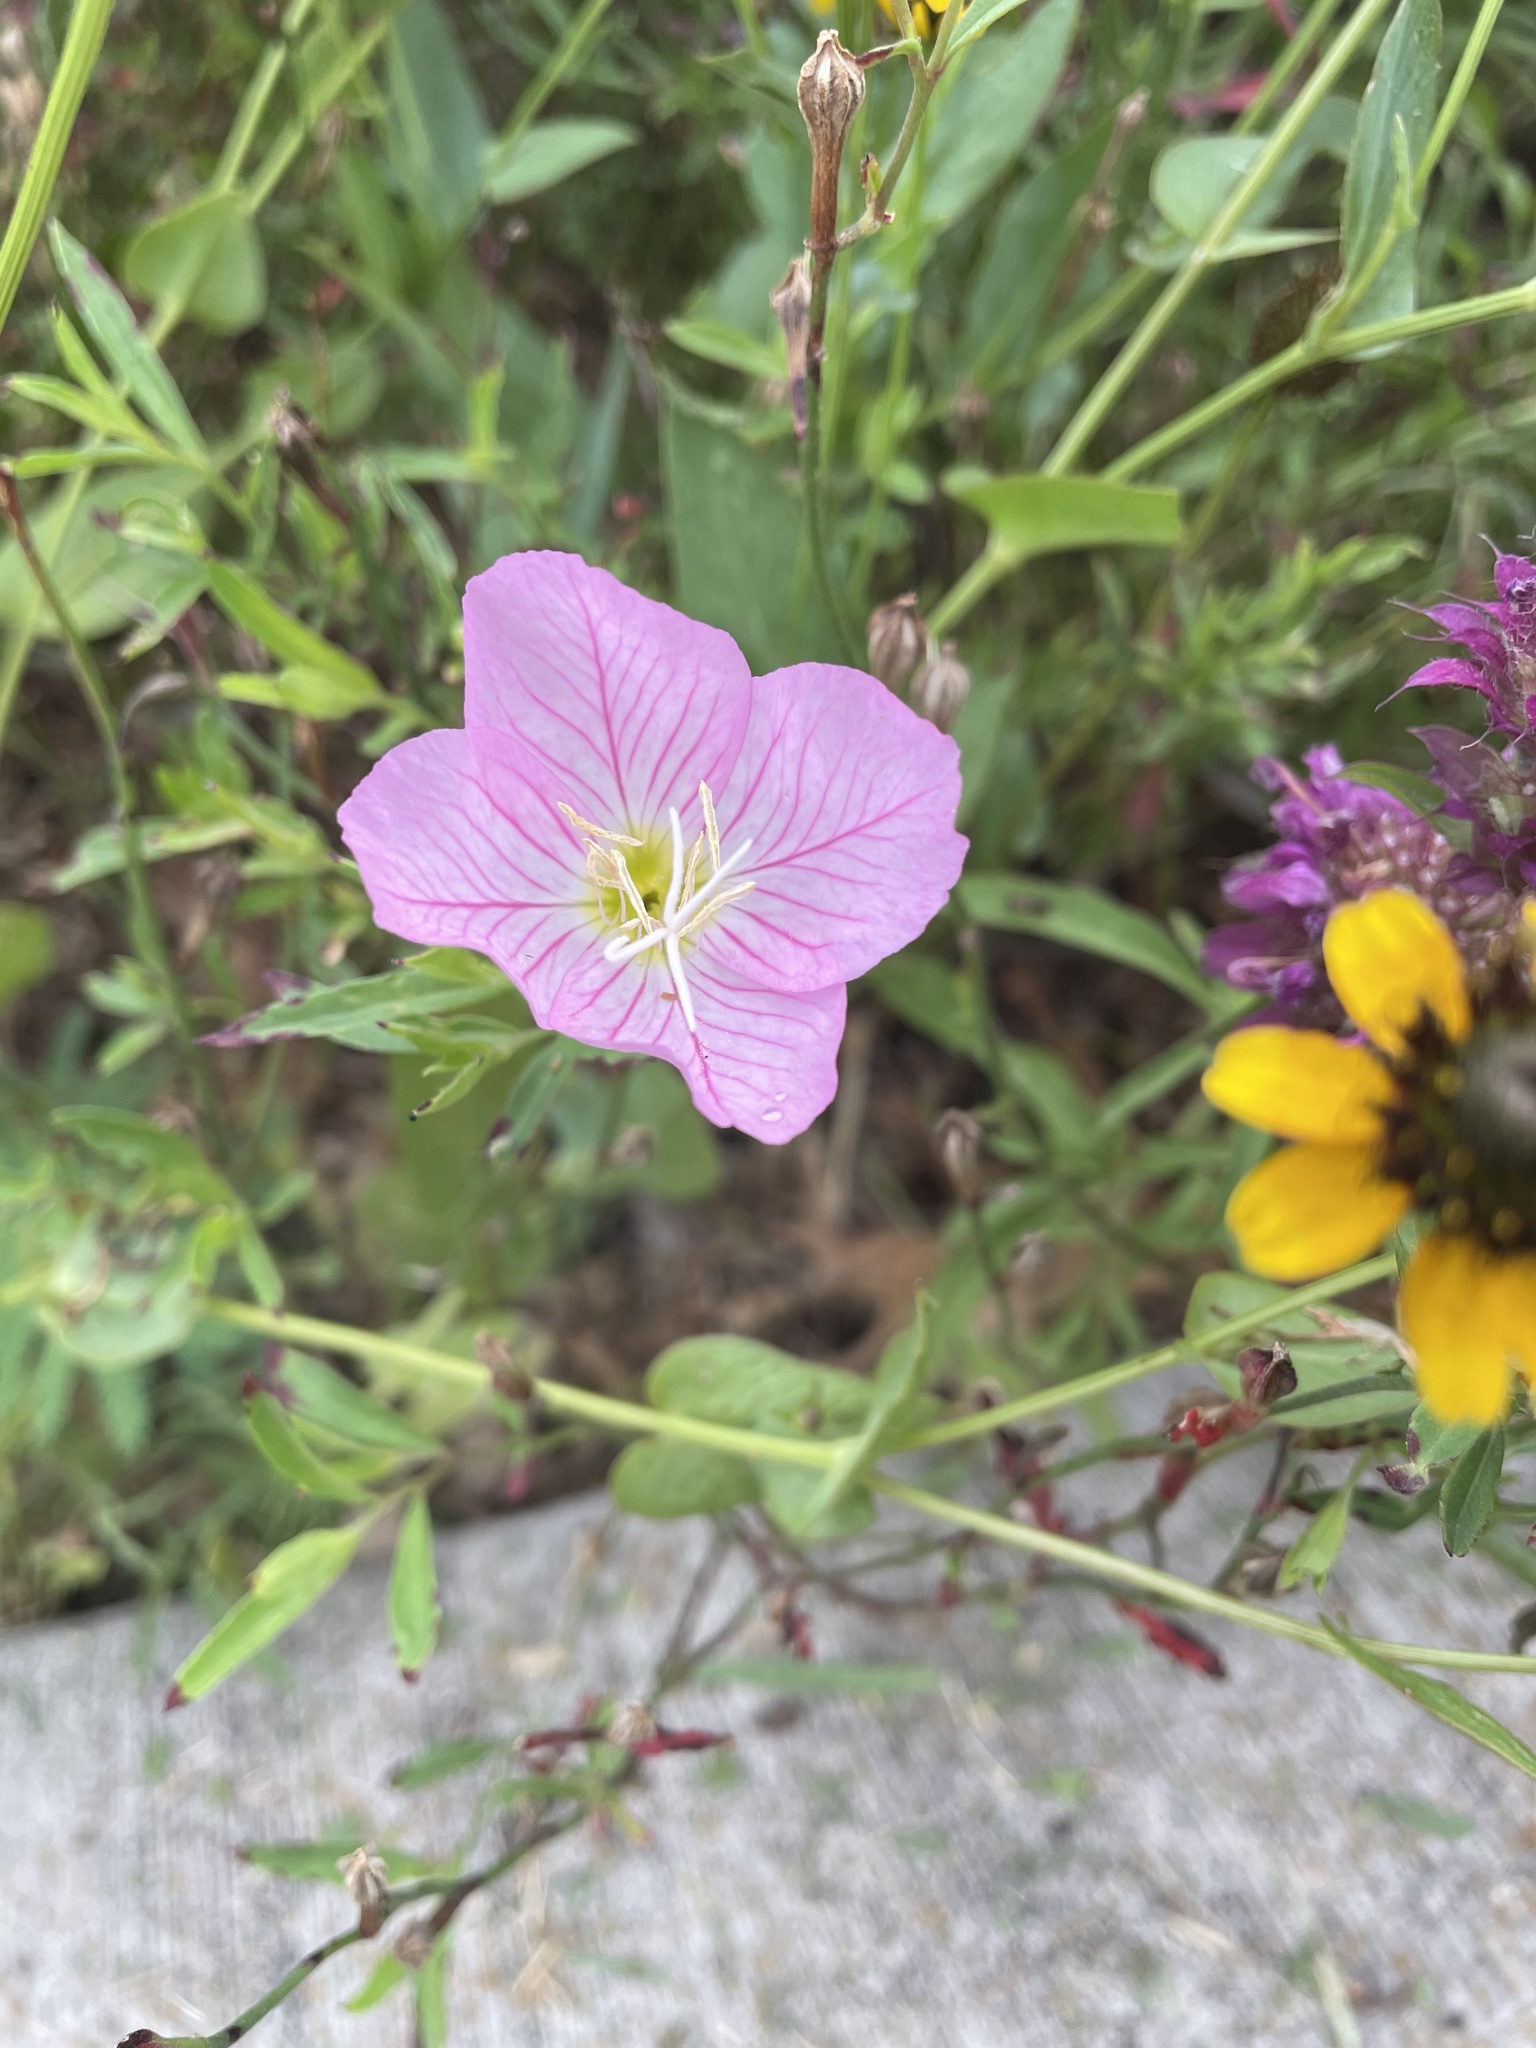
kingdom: Plantae
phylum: Tracheophyta
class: Magnoliopsida
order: Myrtales
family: Onagraceae
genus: Oenothera
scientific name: Oenothera speciosa
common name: White evening-primrose
